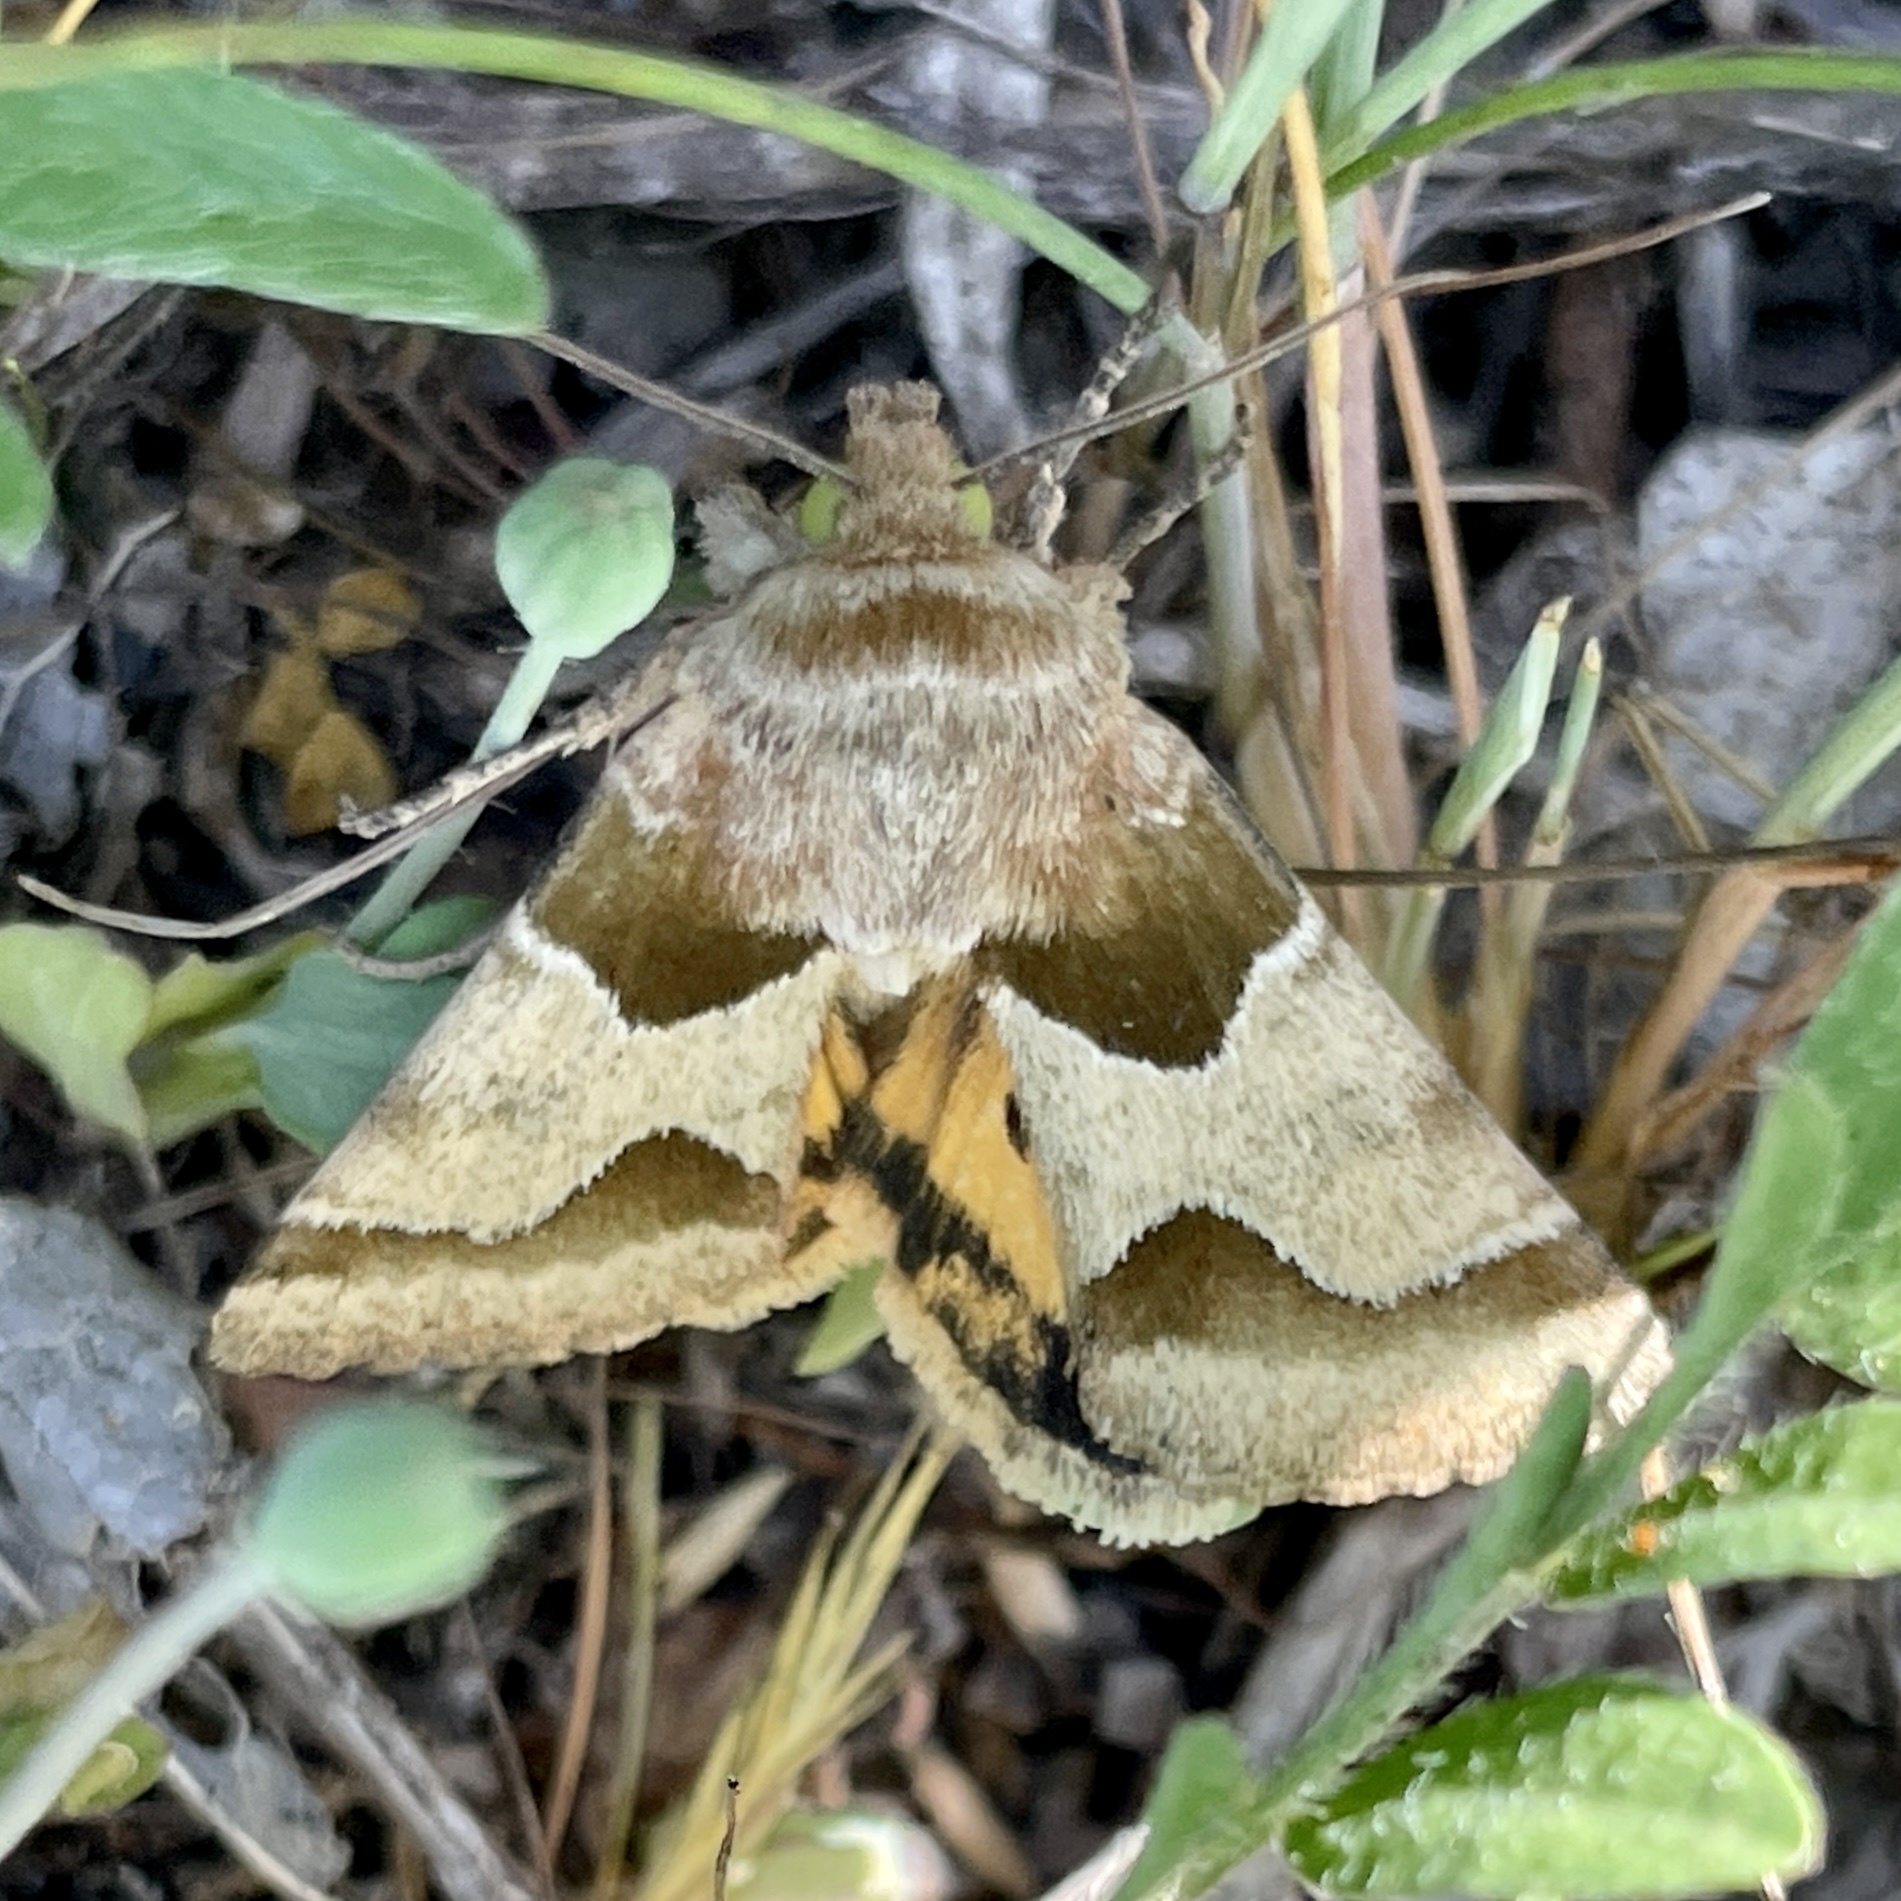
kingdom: Animalia
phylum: Arthropoda
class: Insecta
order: Lepidoptera
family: Noctuidae
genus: Schinia
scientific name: Schinia jaguarina
